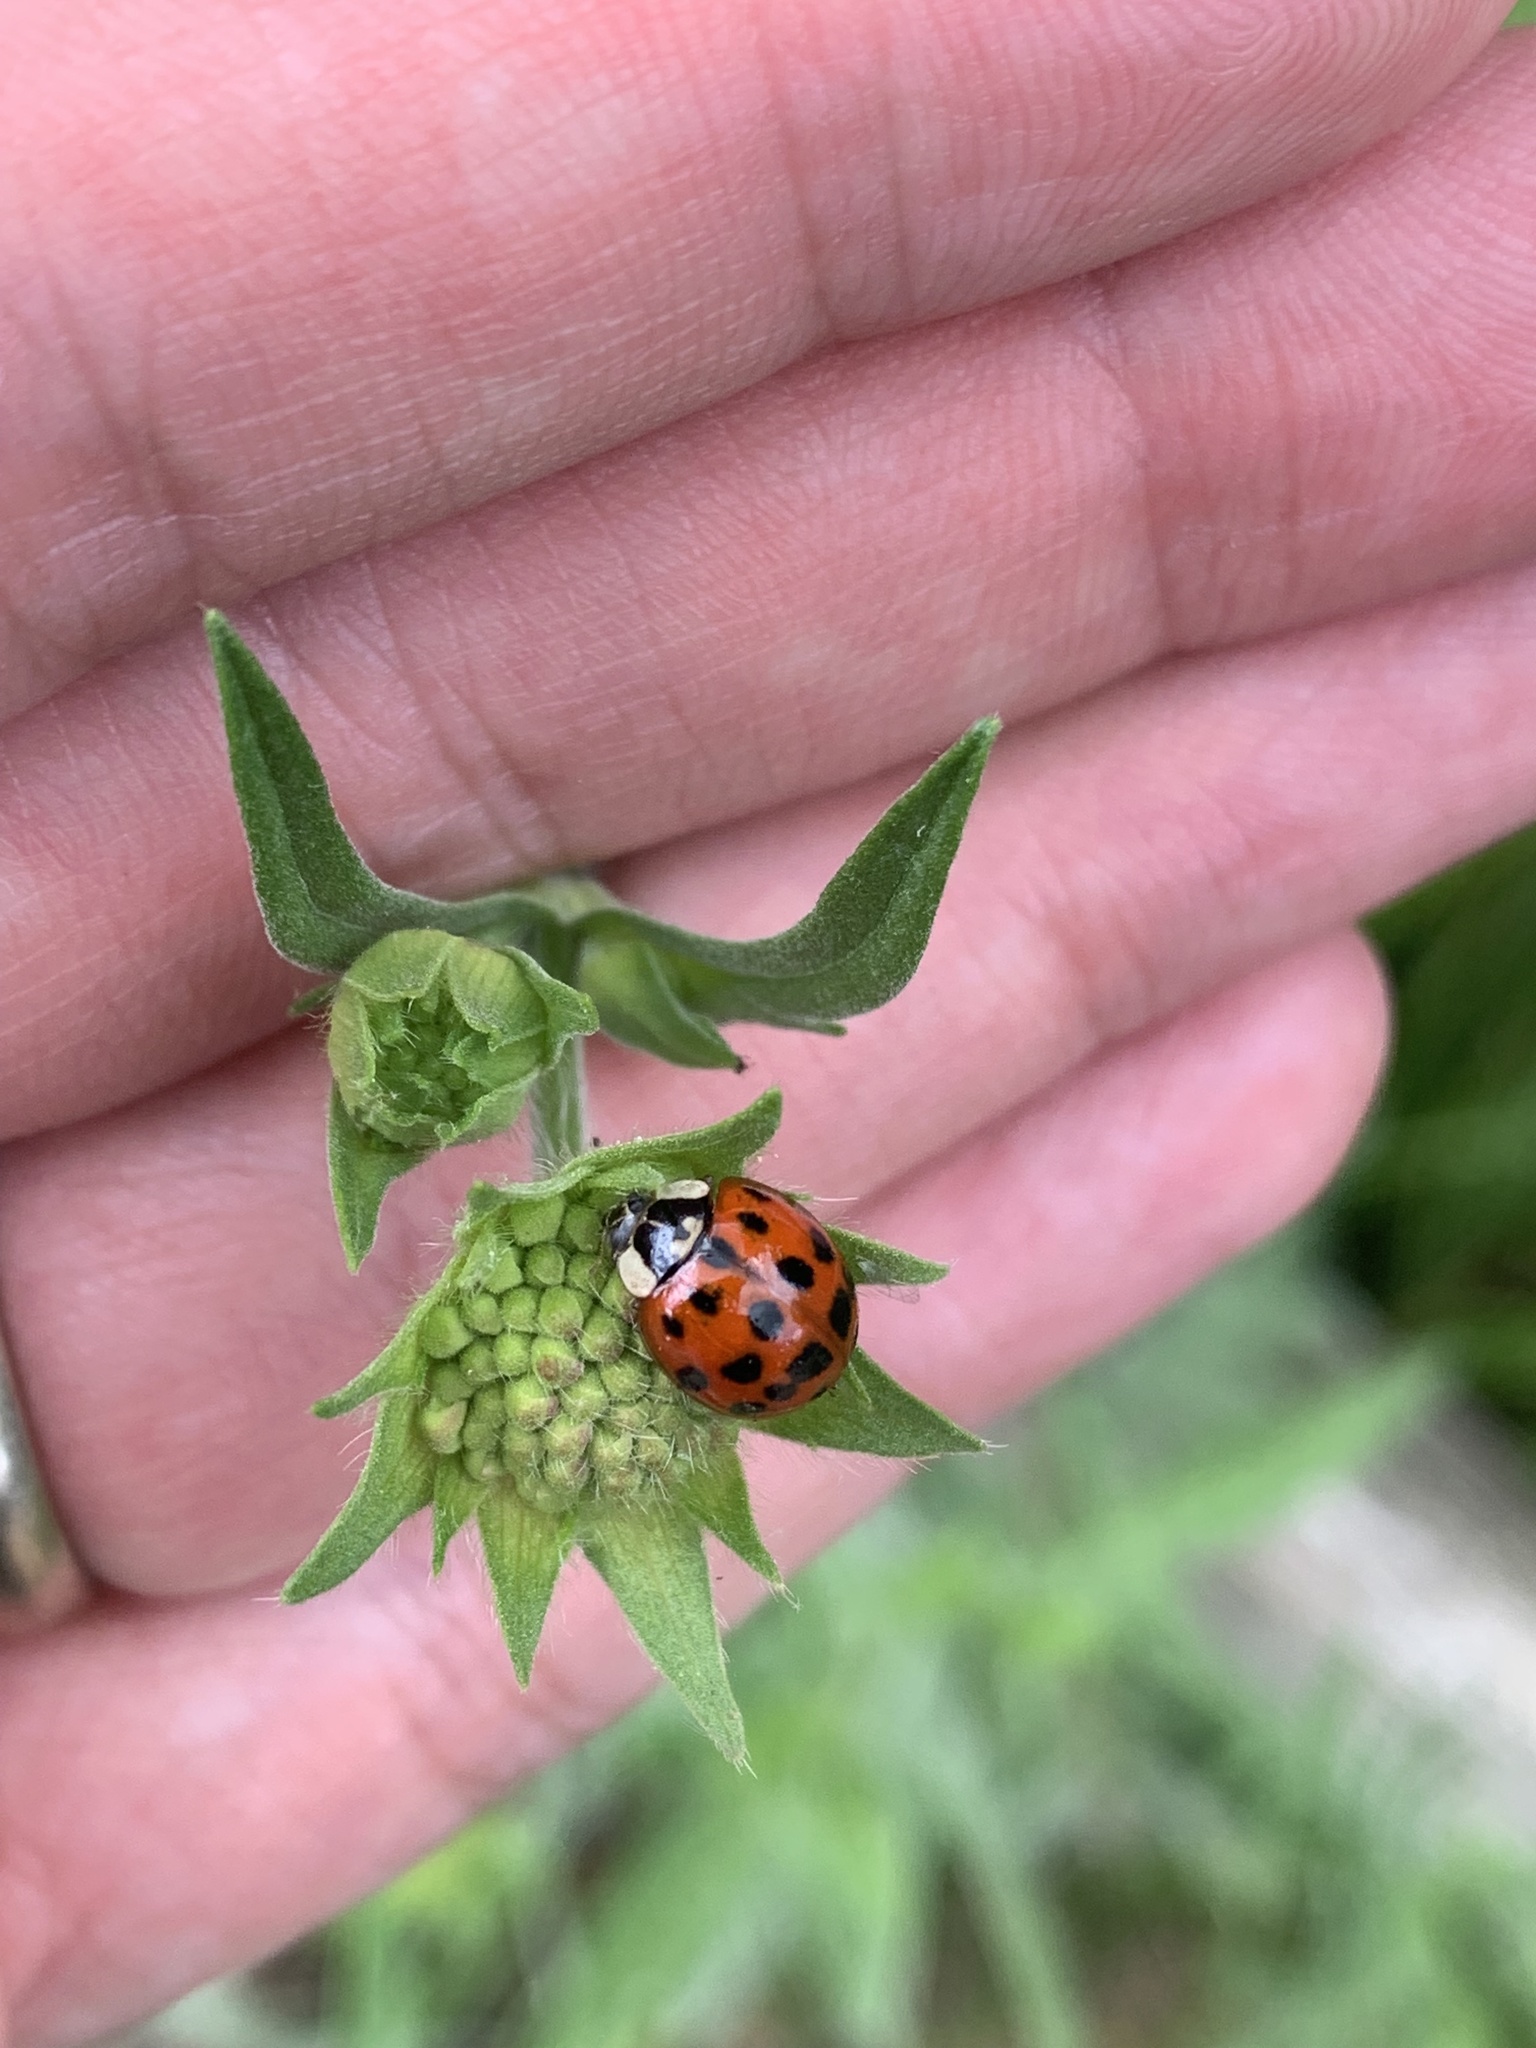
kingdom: Animalia
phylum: Arthropoda
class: Insecta
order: Coleoptera
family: Coccinellidae
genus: Harmonia
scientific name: Harmonia axyridis
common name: Harlequin ladybird
